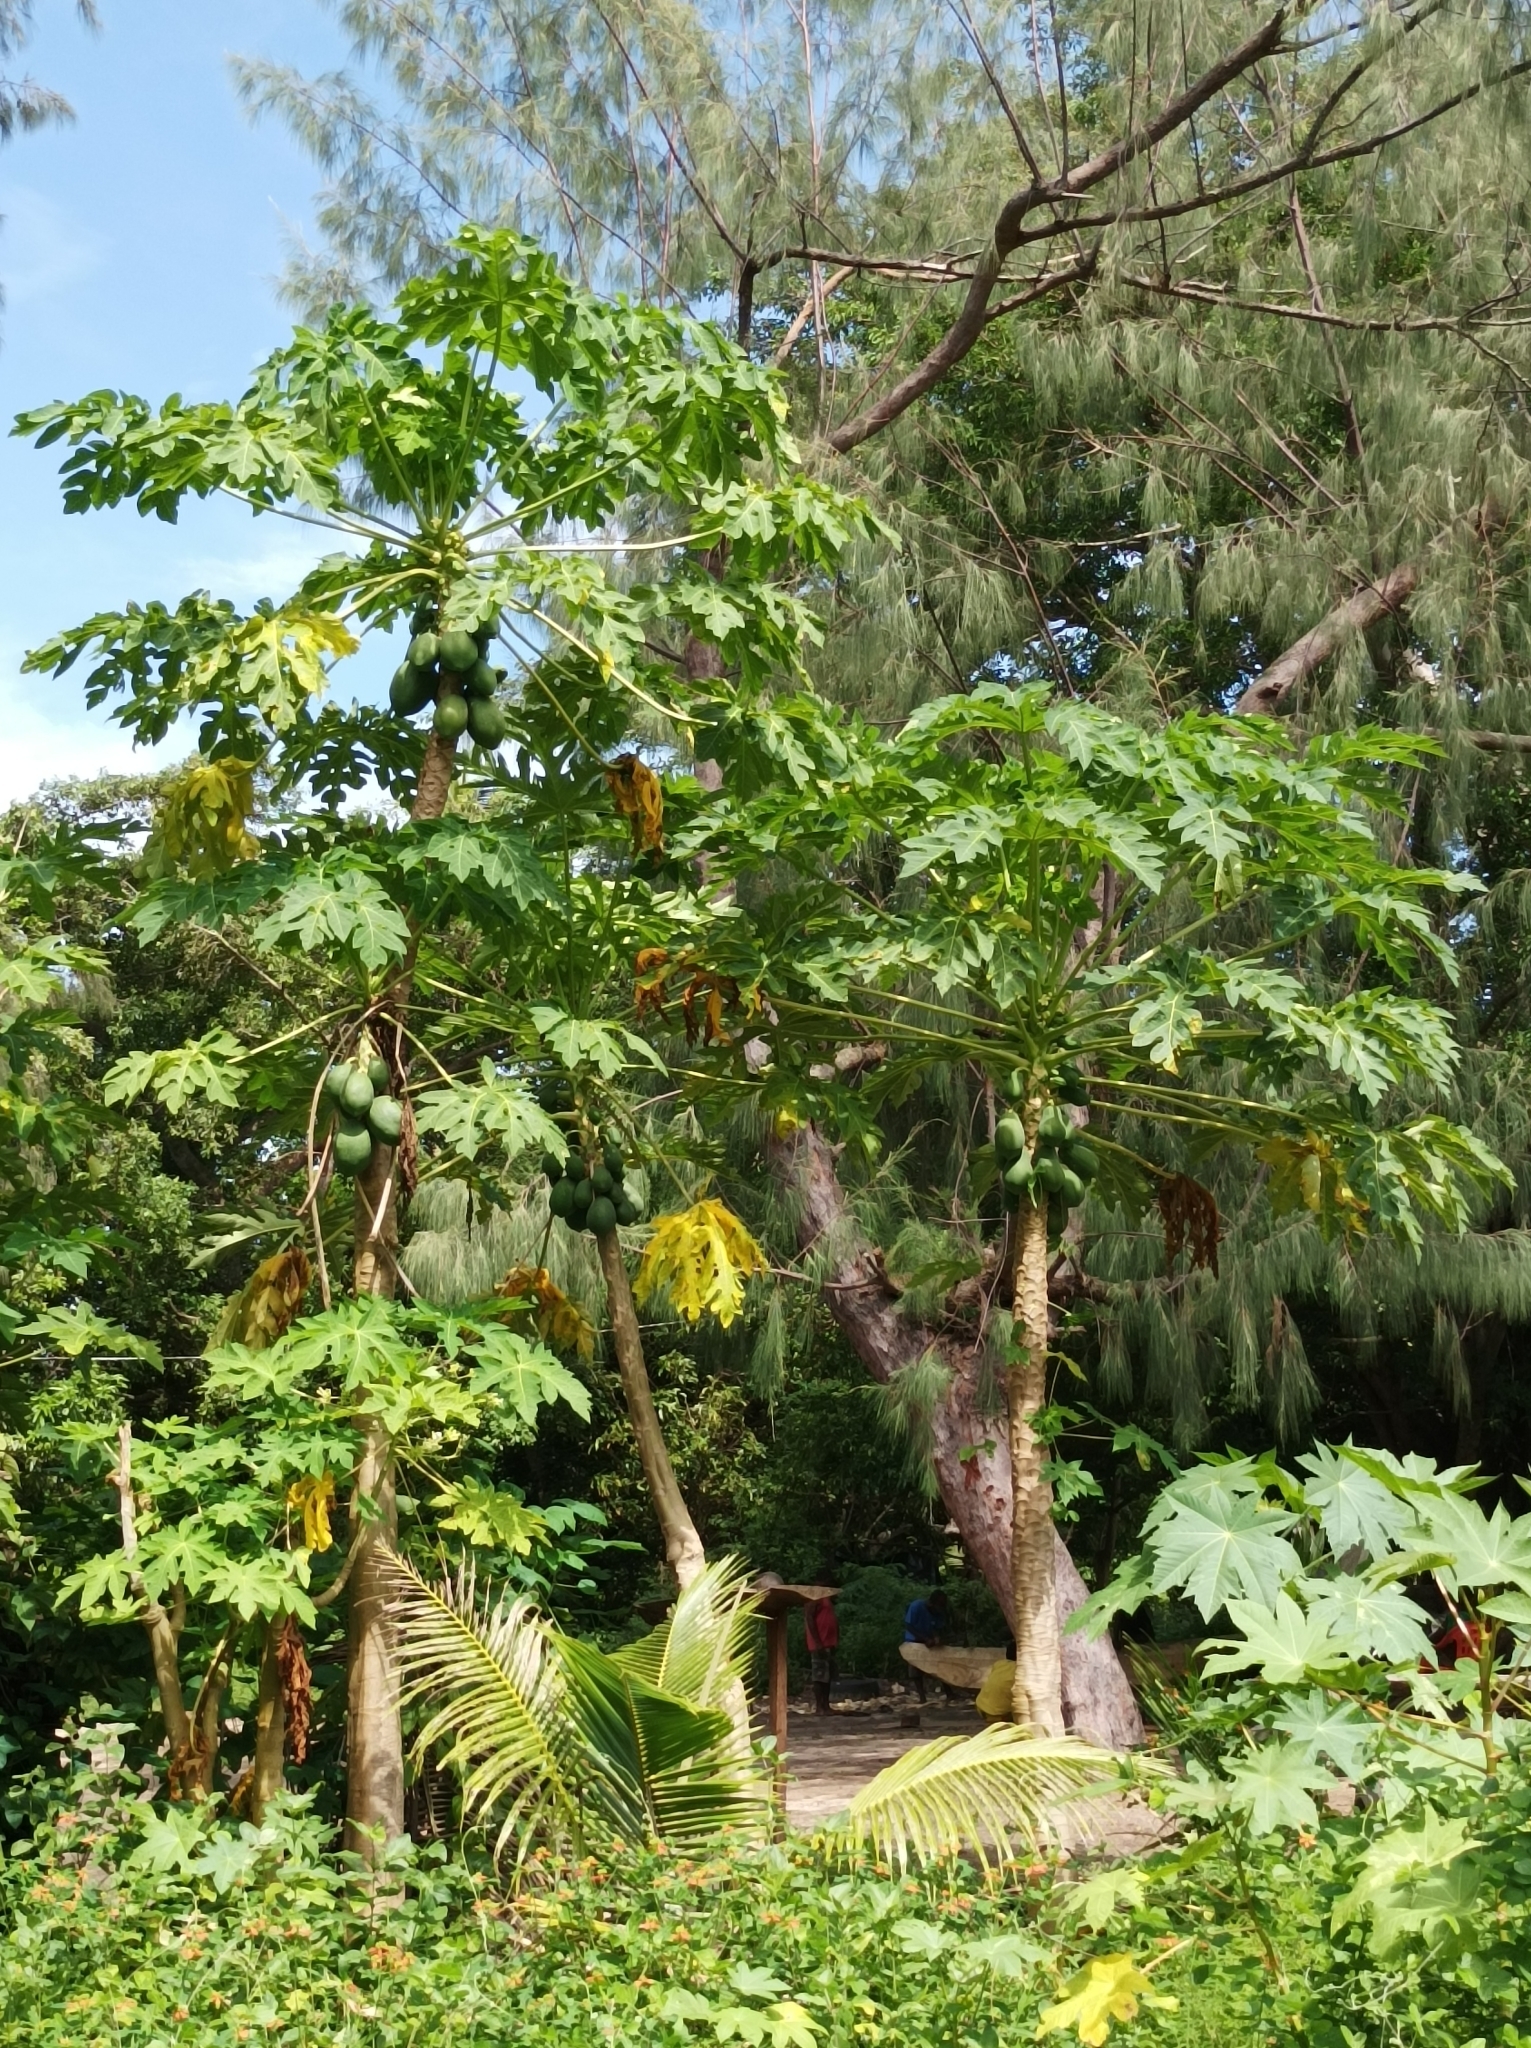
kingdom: Plantae
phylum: Tracheophyta
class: Magnoliopsida
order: Brassicales
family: Caricaceae
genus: Carica
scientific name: Carica papaya
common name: Papaya
